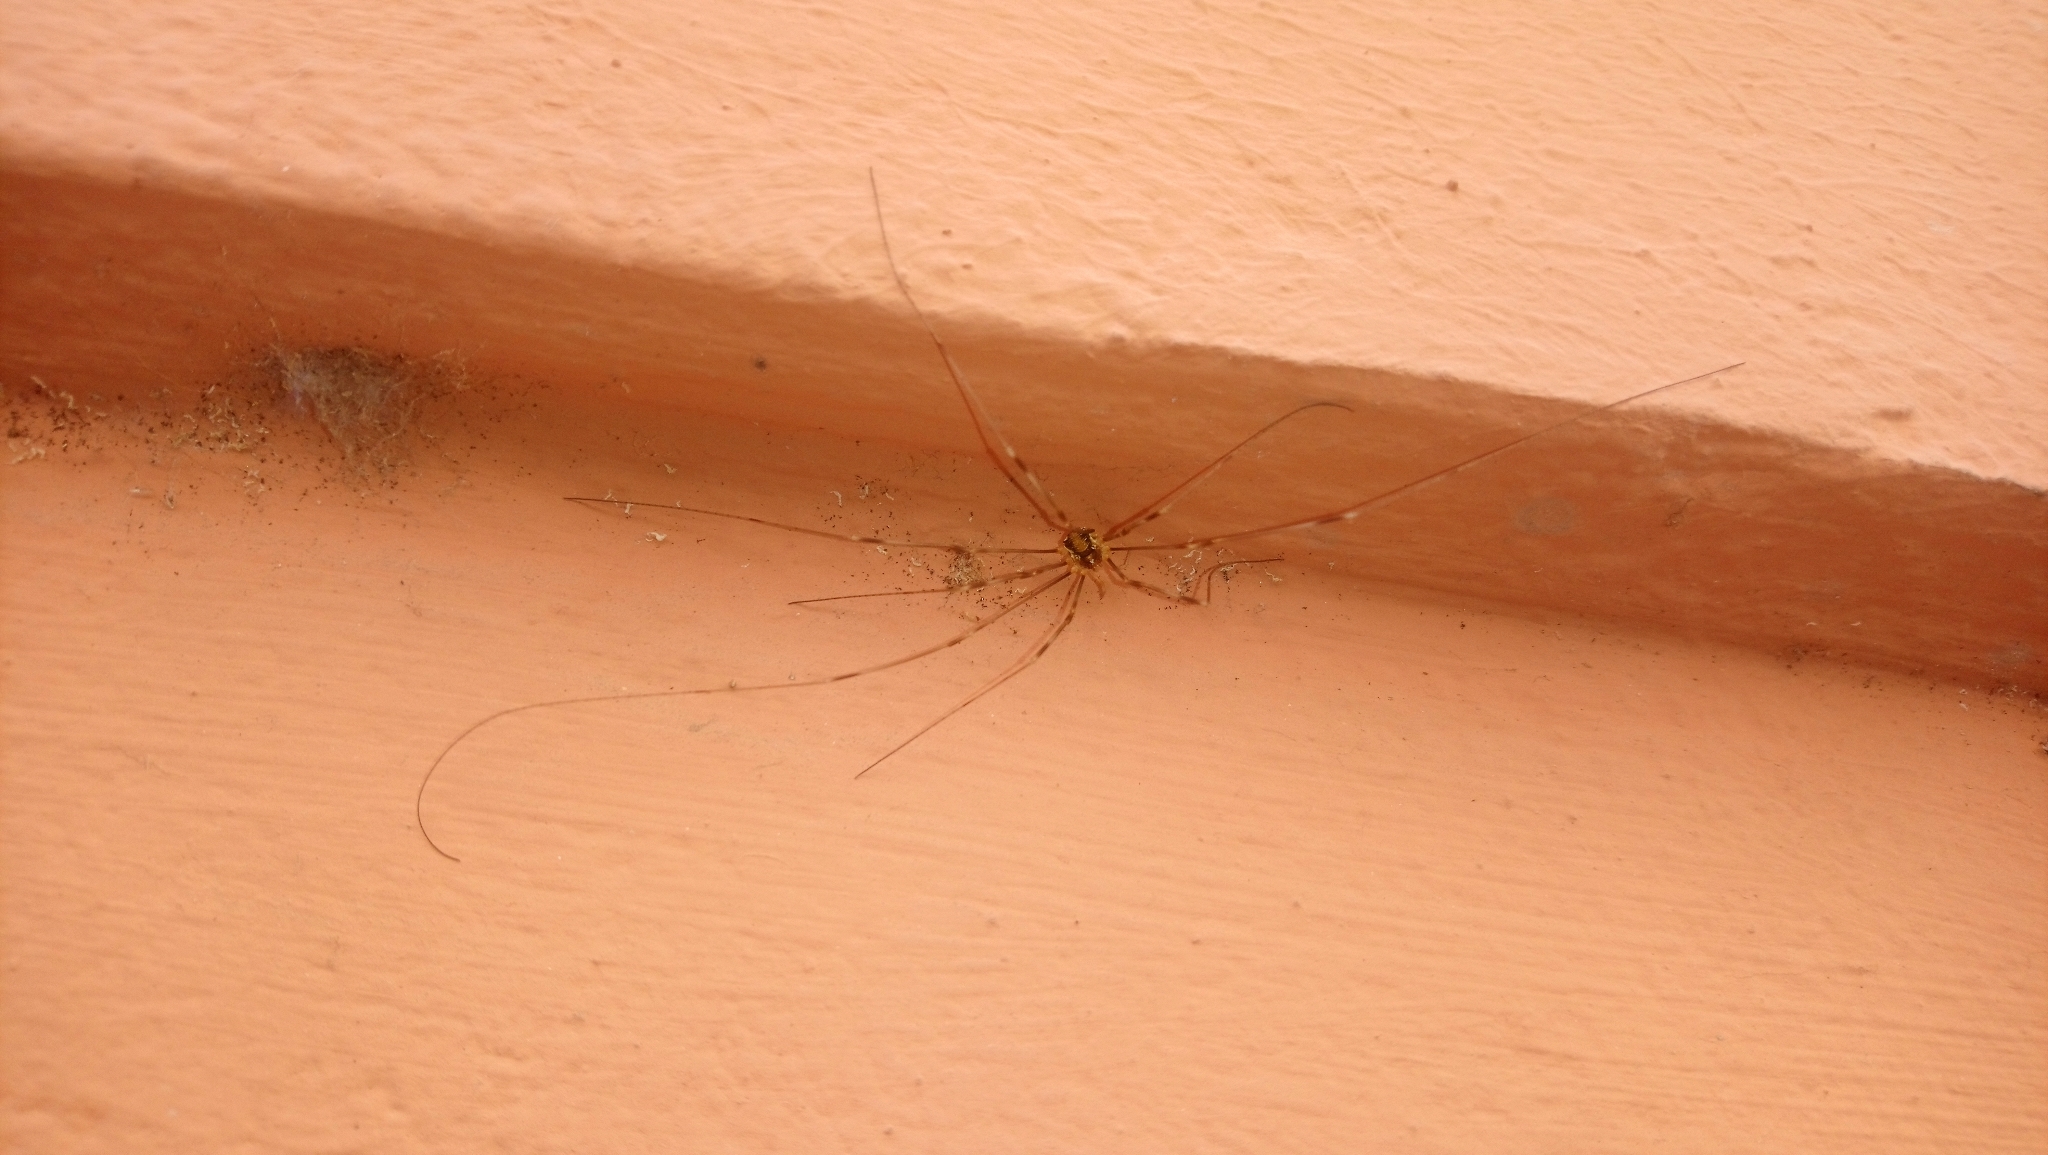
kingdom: Animalia
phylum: Arthropoda
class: Arachnida
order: Opiliones
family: Phalangiidae
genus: Opilio
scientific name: Opilio canestrinii
